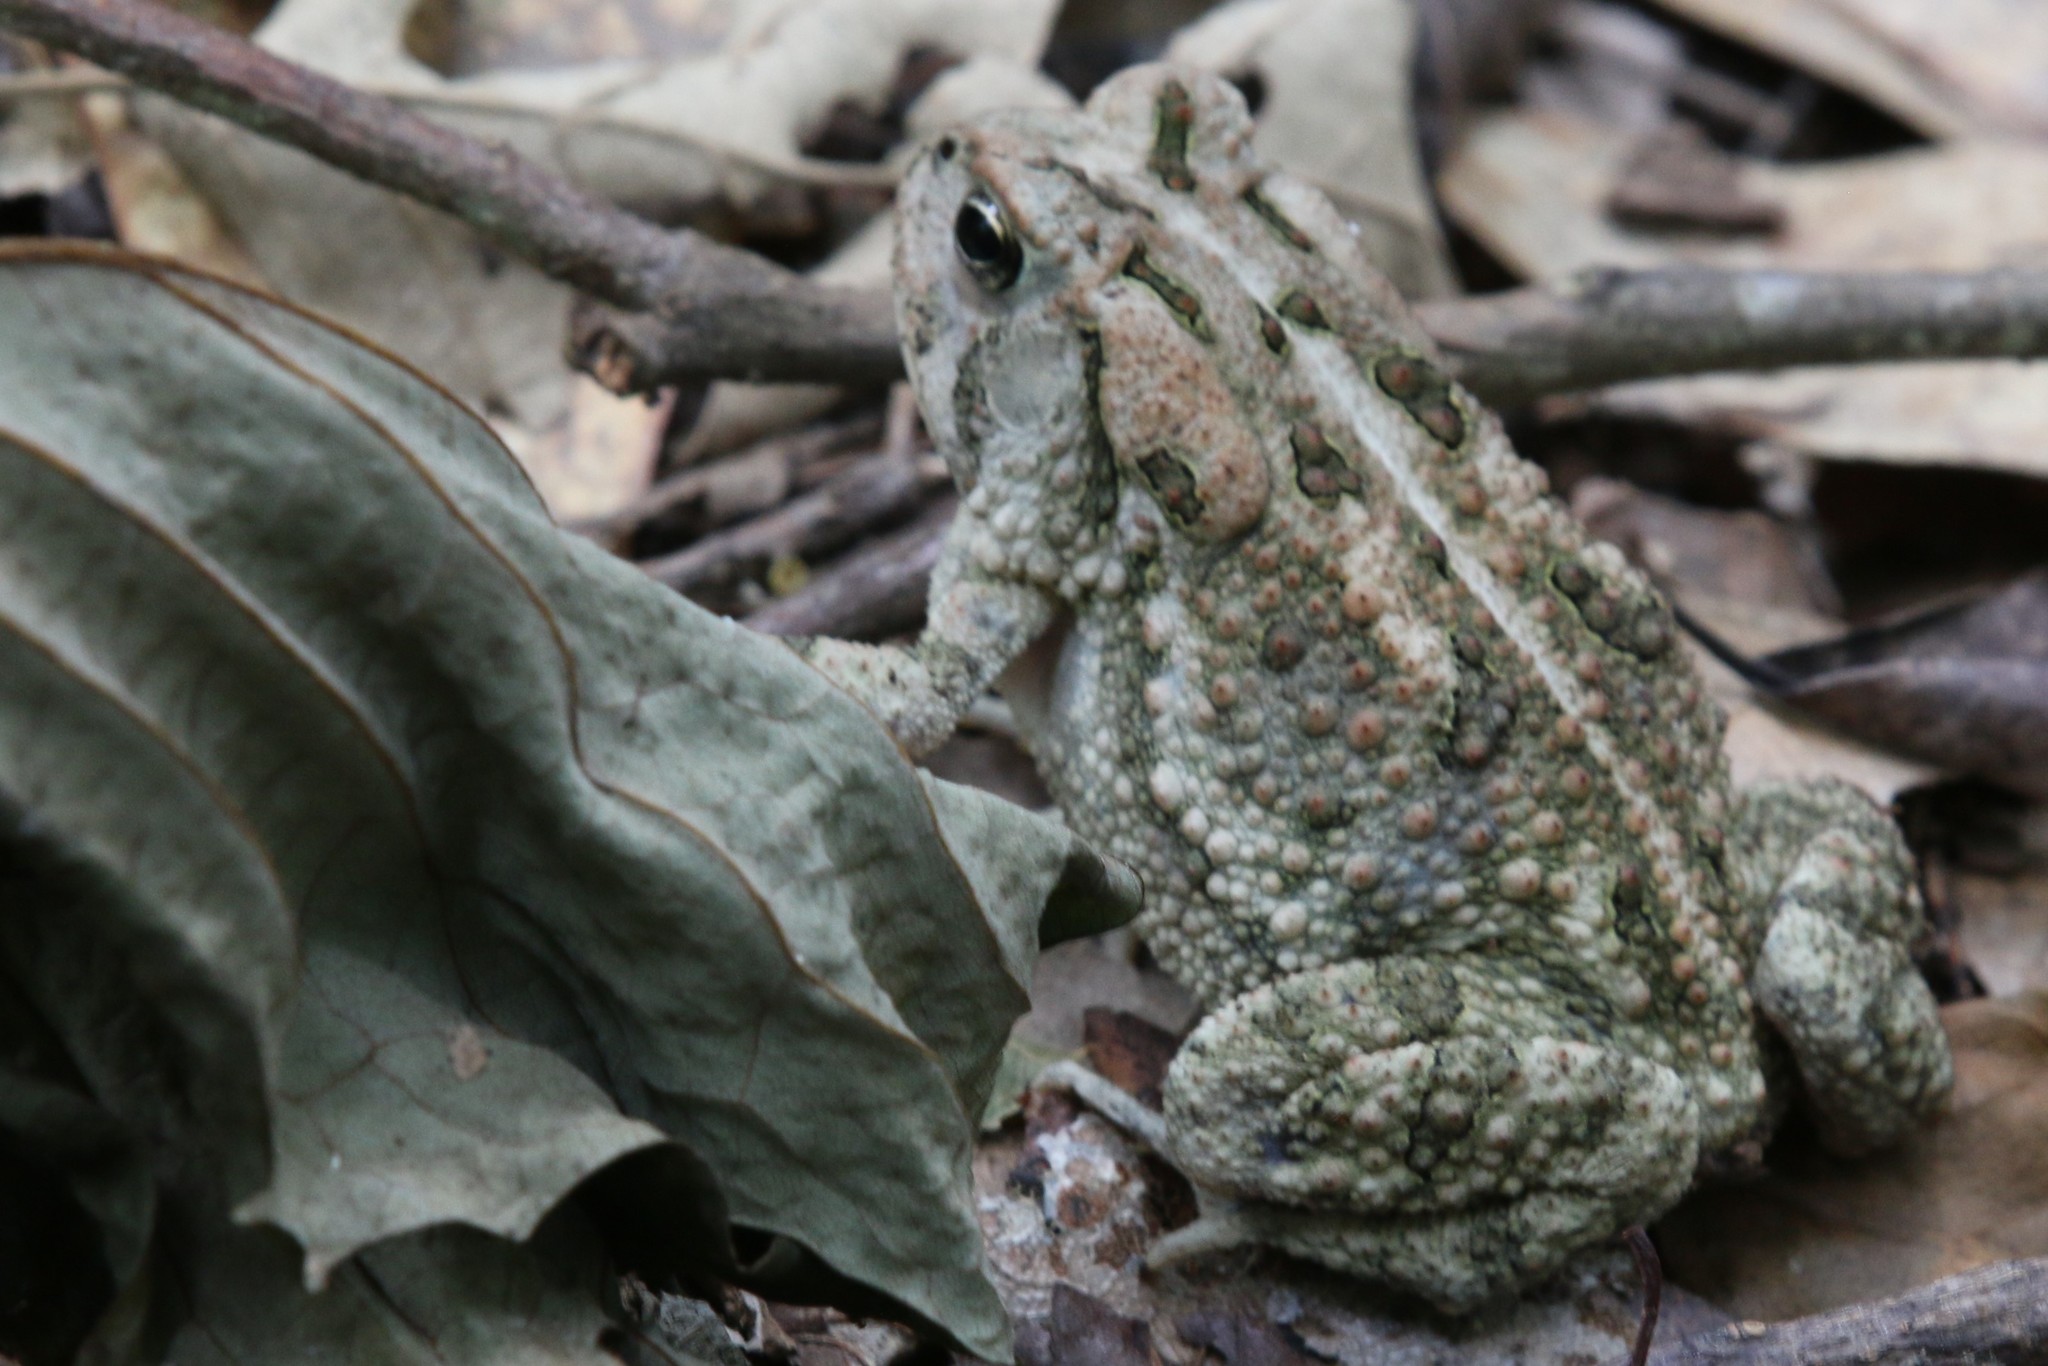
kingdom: Animalia
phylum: Chordata
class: Amphibia
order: Anura
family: Bufonidae
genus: Anaxyrus
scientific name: Anaxyrus fowleri
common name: Fowler's toad
